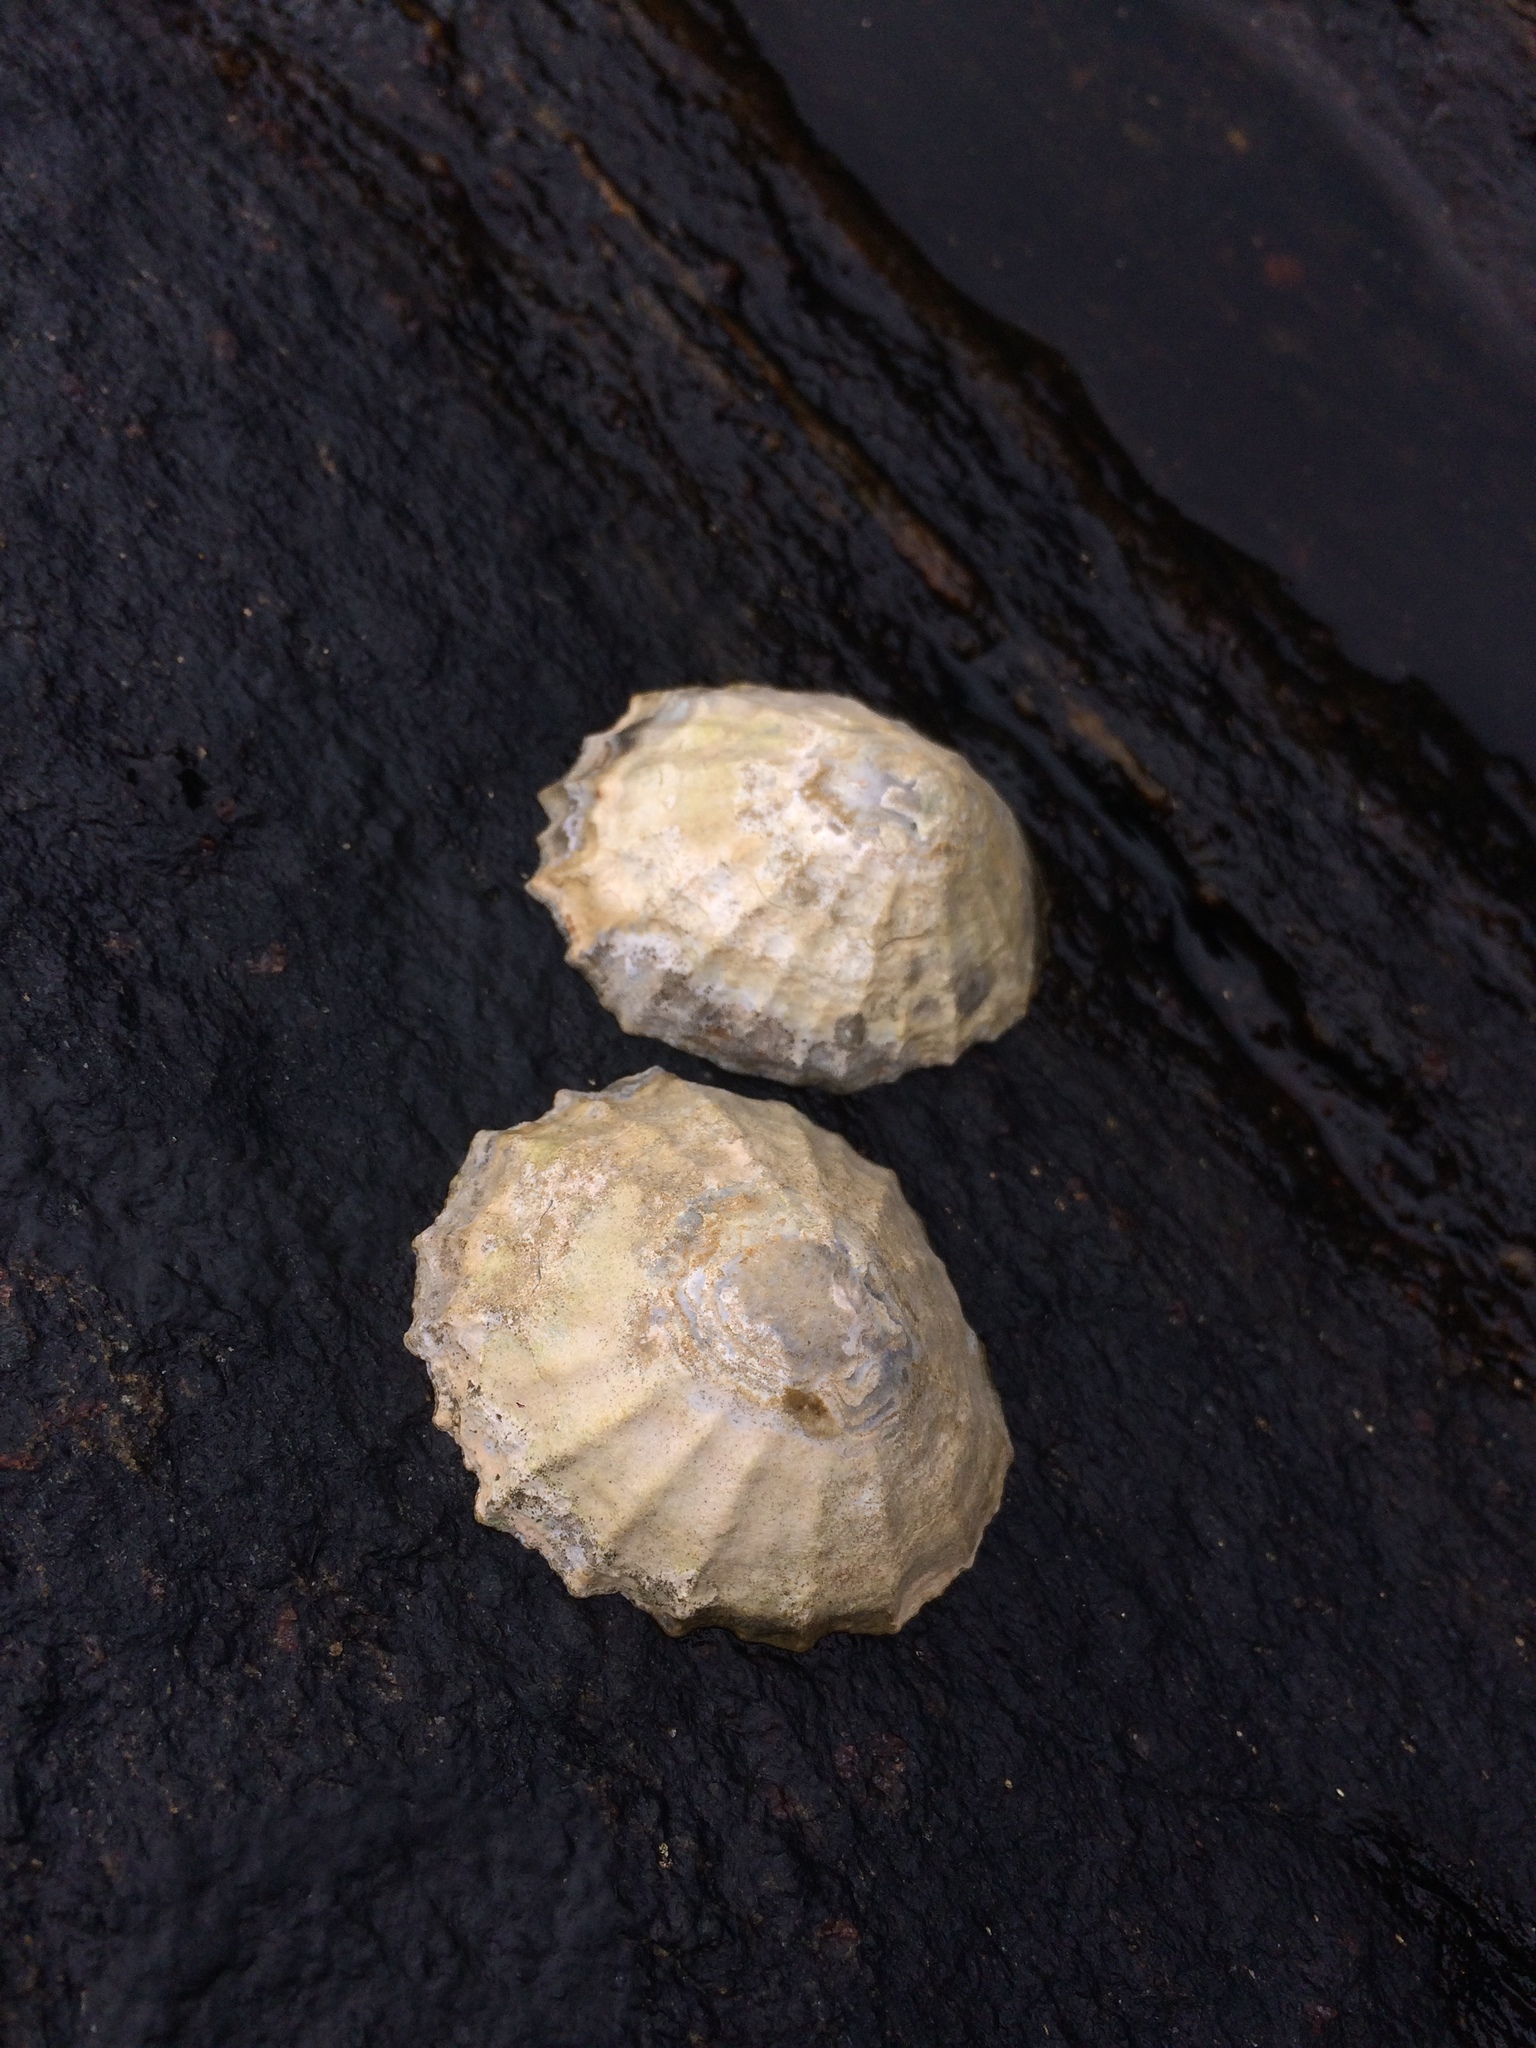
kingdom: Animalia
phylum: Mollusca
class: Gastropoda
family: Patellidae
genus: Patella
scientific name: Patella vulgata
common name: Common limpet
